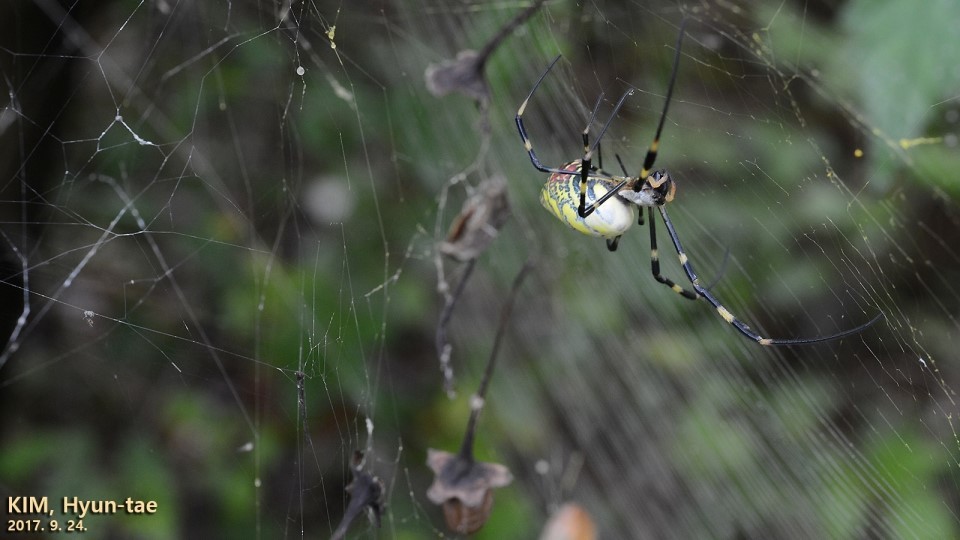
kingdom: Animalia
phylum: Arthropoda
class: Arachnida
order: Araneae
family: Araneidae
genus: Trichonephila
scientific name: Trichonephila clavata
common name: Jorō spider
